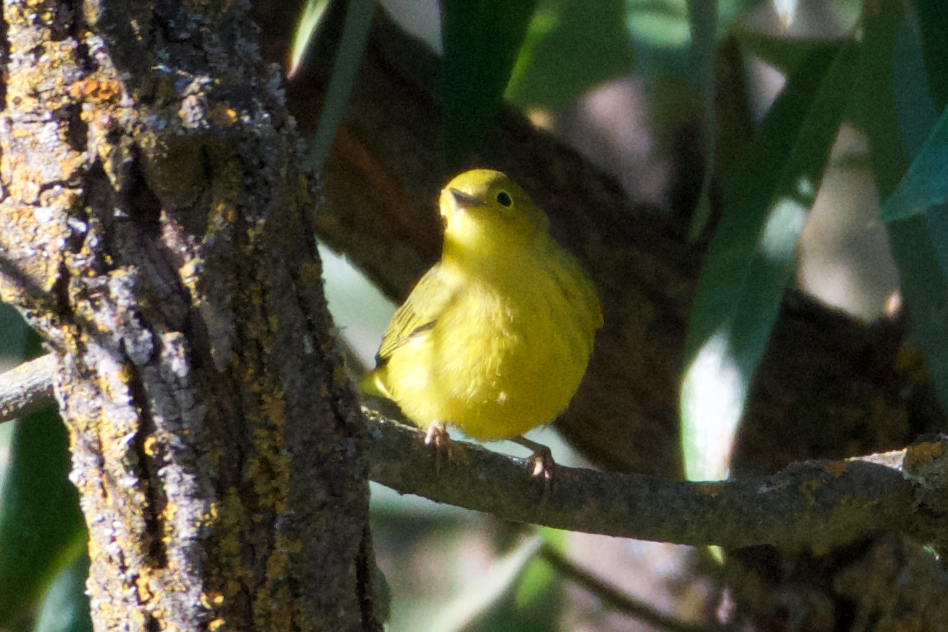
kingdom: Animalia
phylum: Chordata
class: Aves
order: Passeriformes
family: Parulidae
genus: Setophaga
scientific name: Setophaga petechia
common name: Yellow warbler
